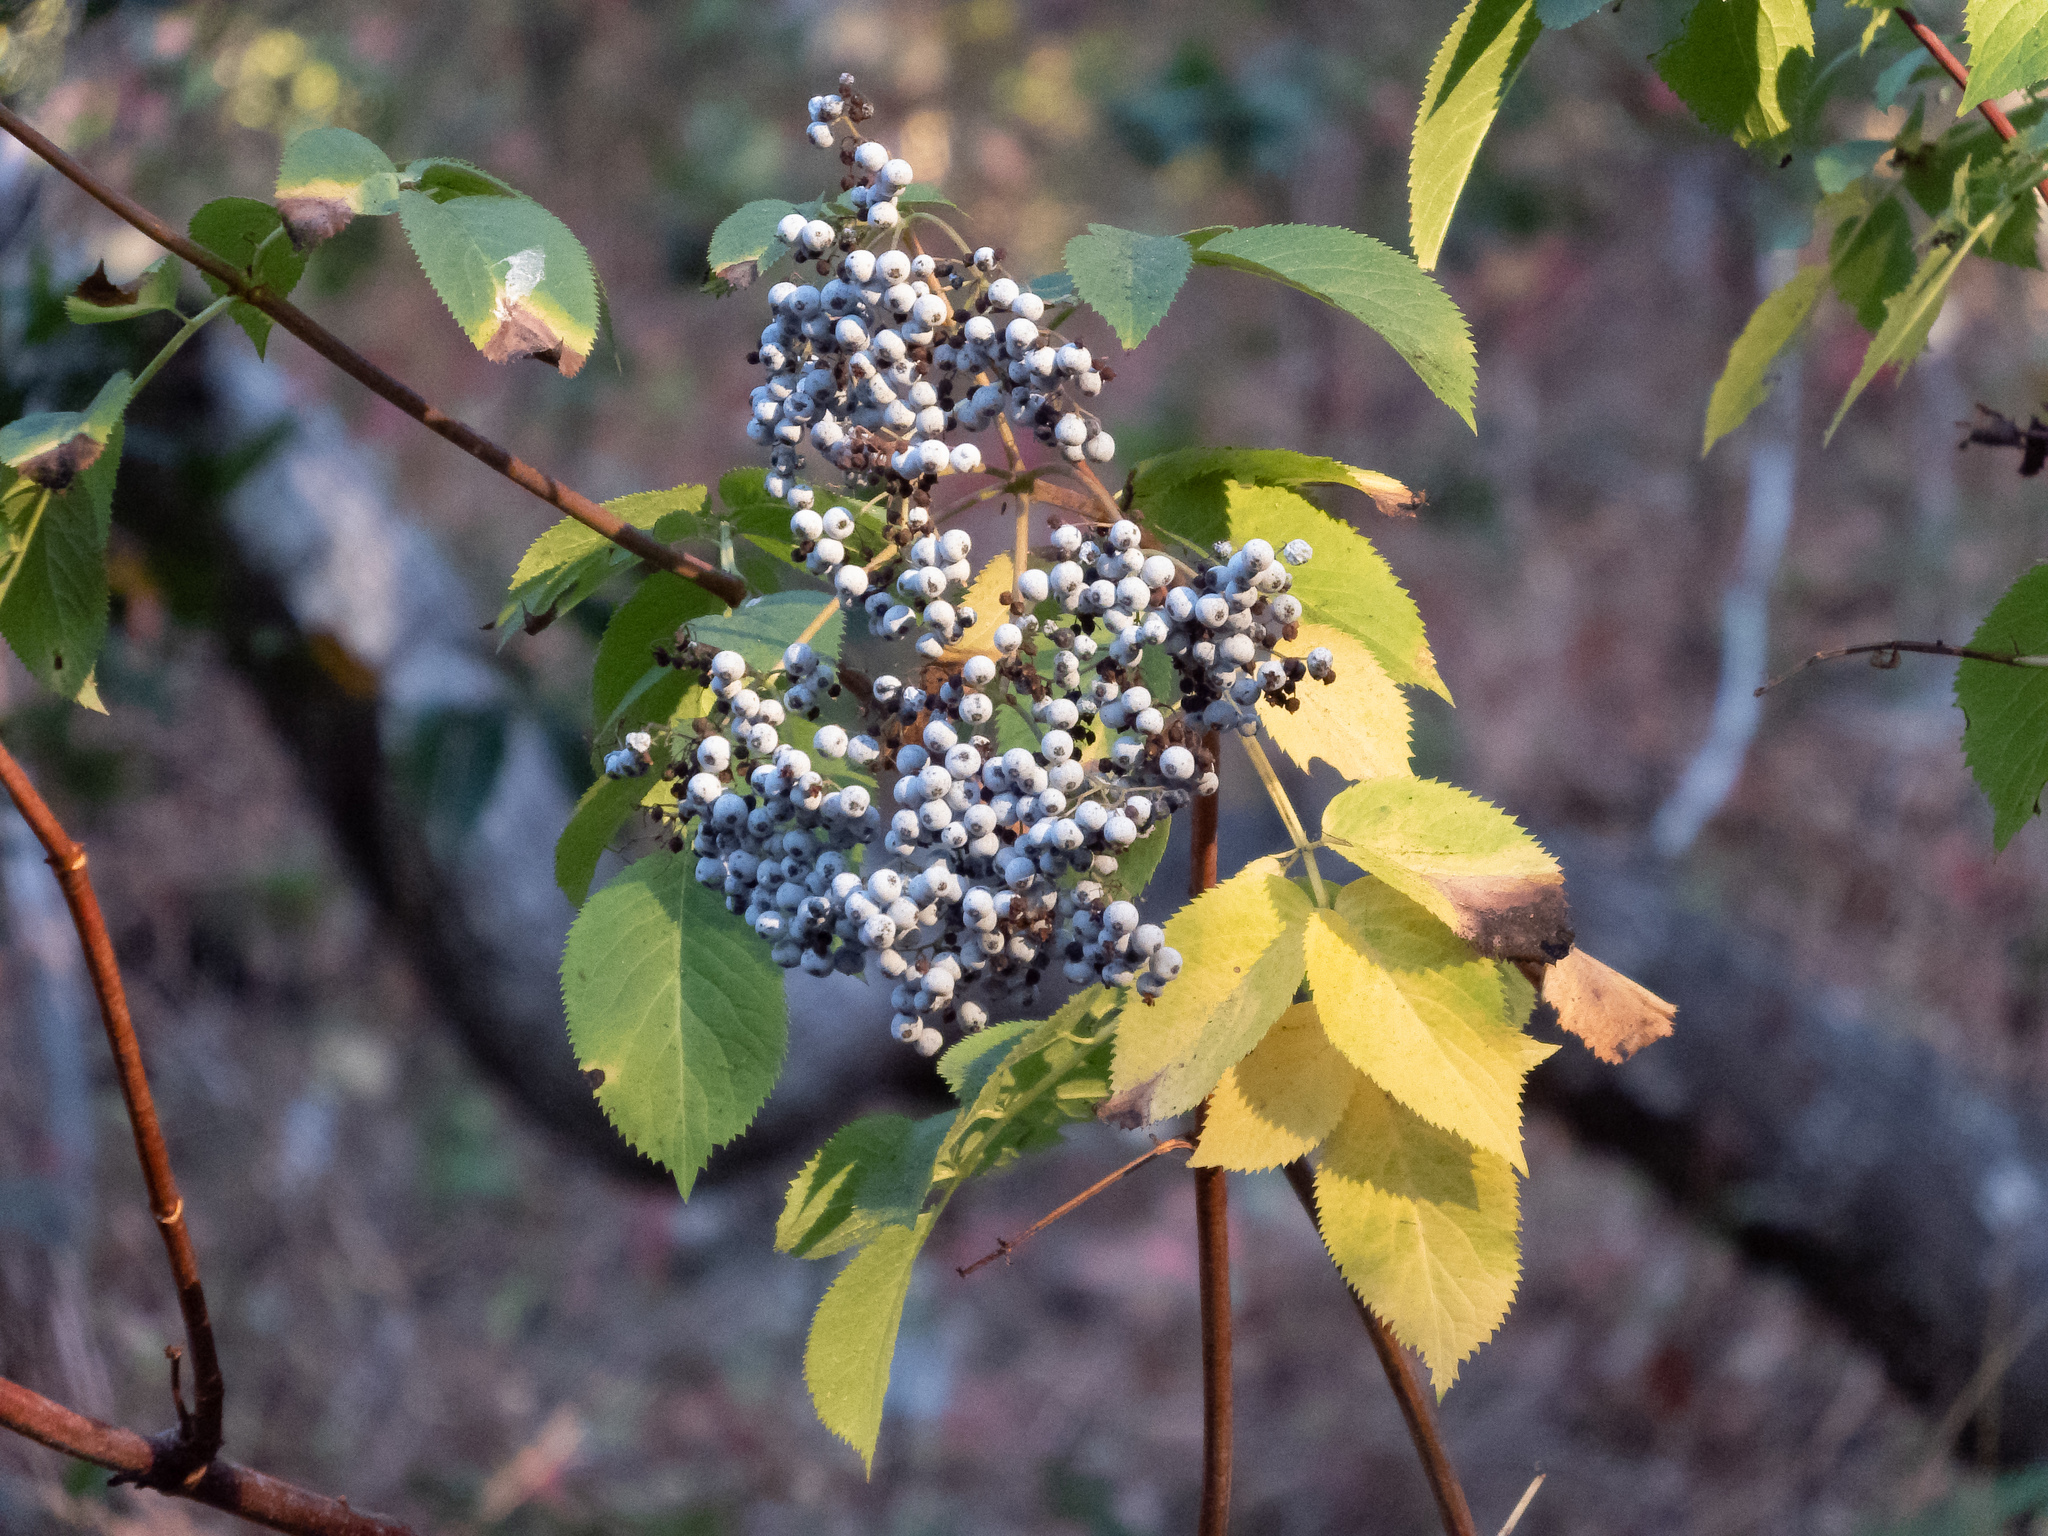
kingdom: Plantae
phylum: Tracheophyta
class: Magnoliopsida
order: Dipsacales
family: Viburnaceae
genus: Sambucus
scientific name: Sambucus cerulea
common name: Blue elder
